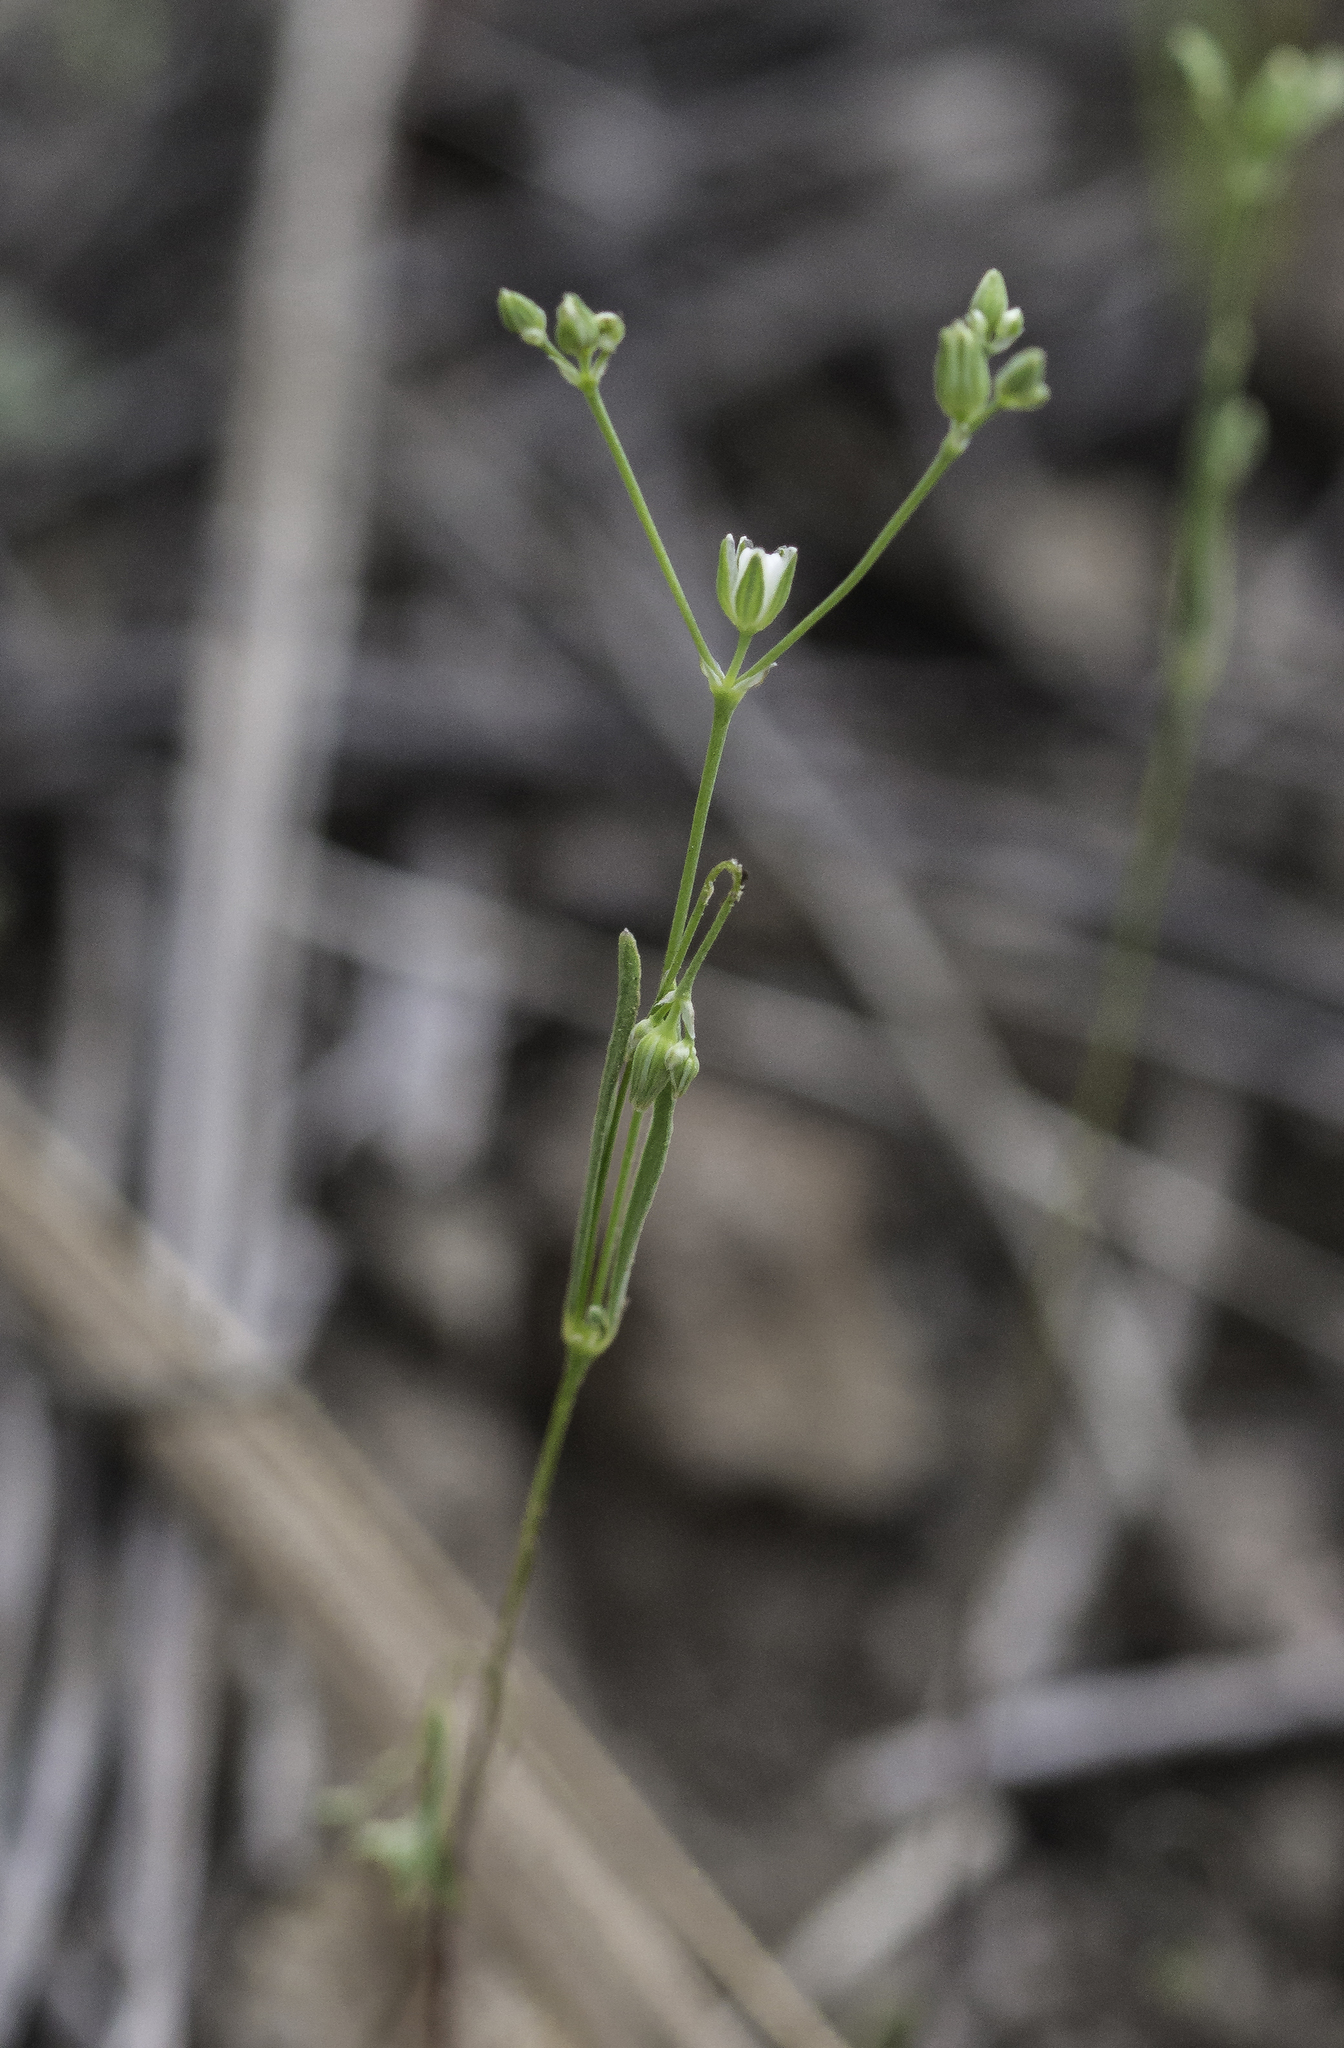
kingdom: Plantae
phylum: Tracheophyta
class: Magnoliopsida
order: Caryophyllales
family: Caryophyllaceae
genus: Drymaria
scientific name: Drymaria leptophylla
